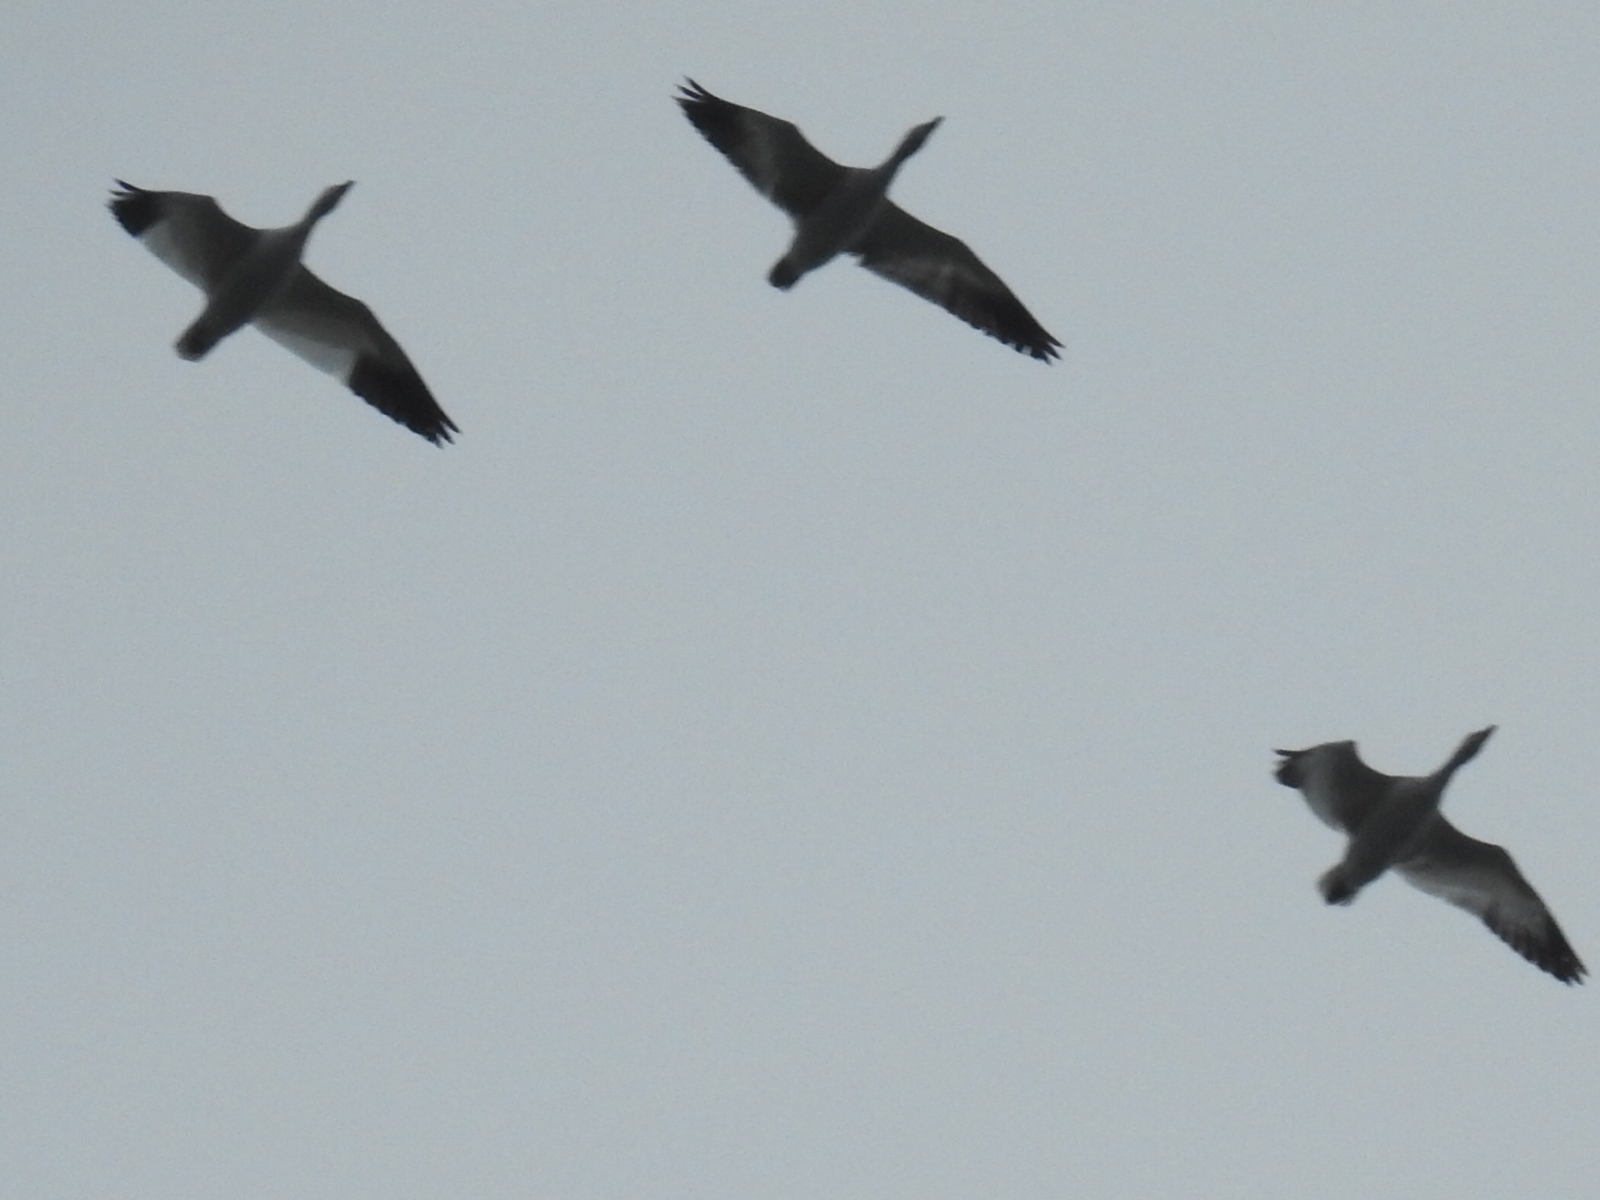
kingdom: Animalia
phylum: Chordata
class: Aves
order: Anseriformes
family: Anatidae
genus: Anser
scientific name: Anser caerulescens
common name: Snow goose
